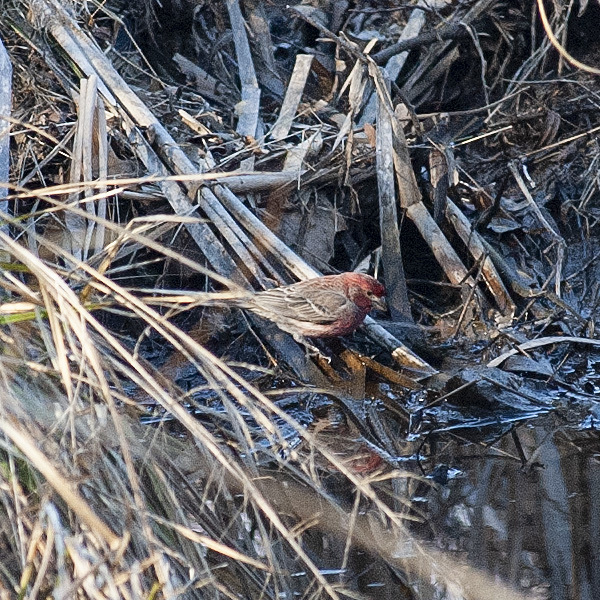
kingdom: Animalia
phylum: Chordata
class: Aves
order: Passeriformes
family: Fringillidae
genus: Haemorhous
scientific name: Haemorhous mexicanus
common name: House finch
